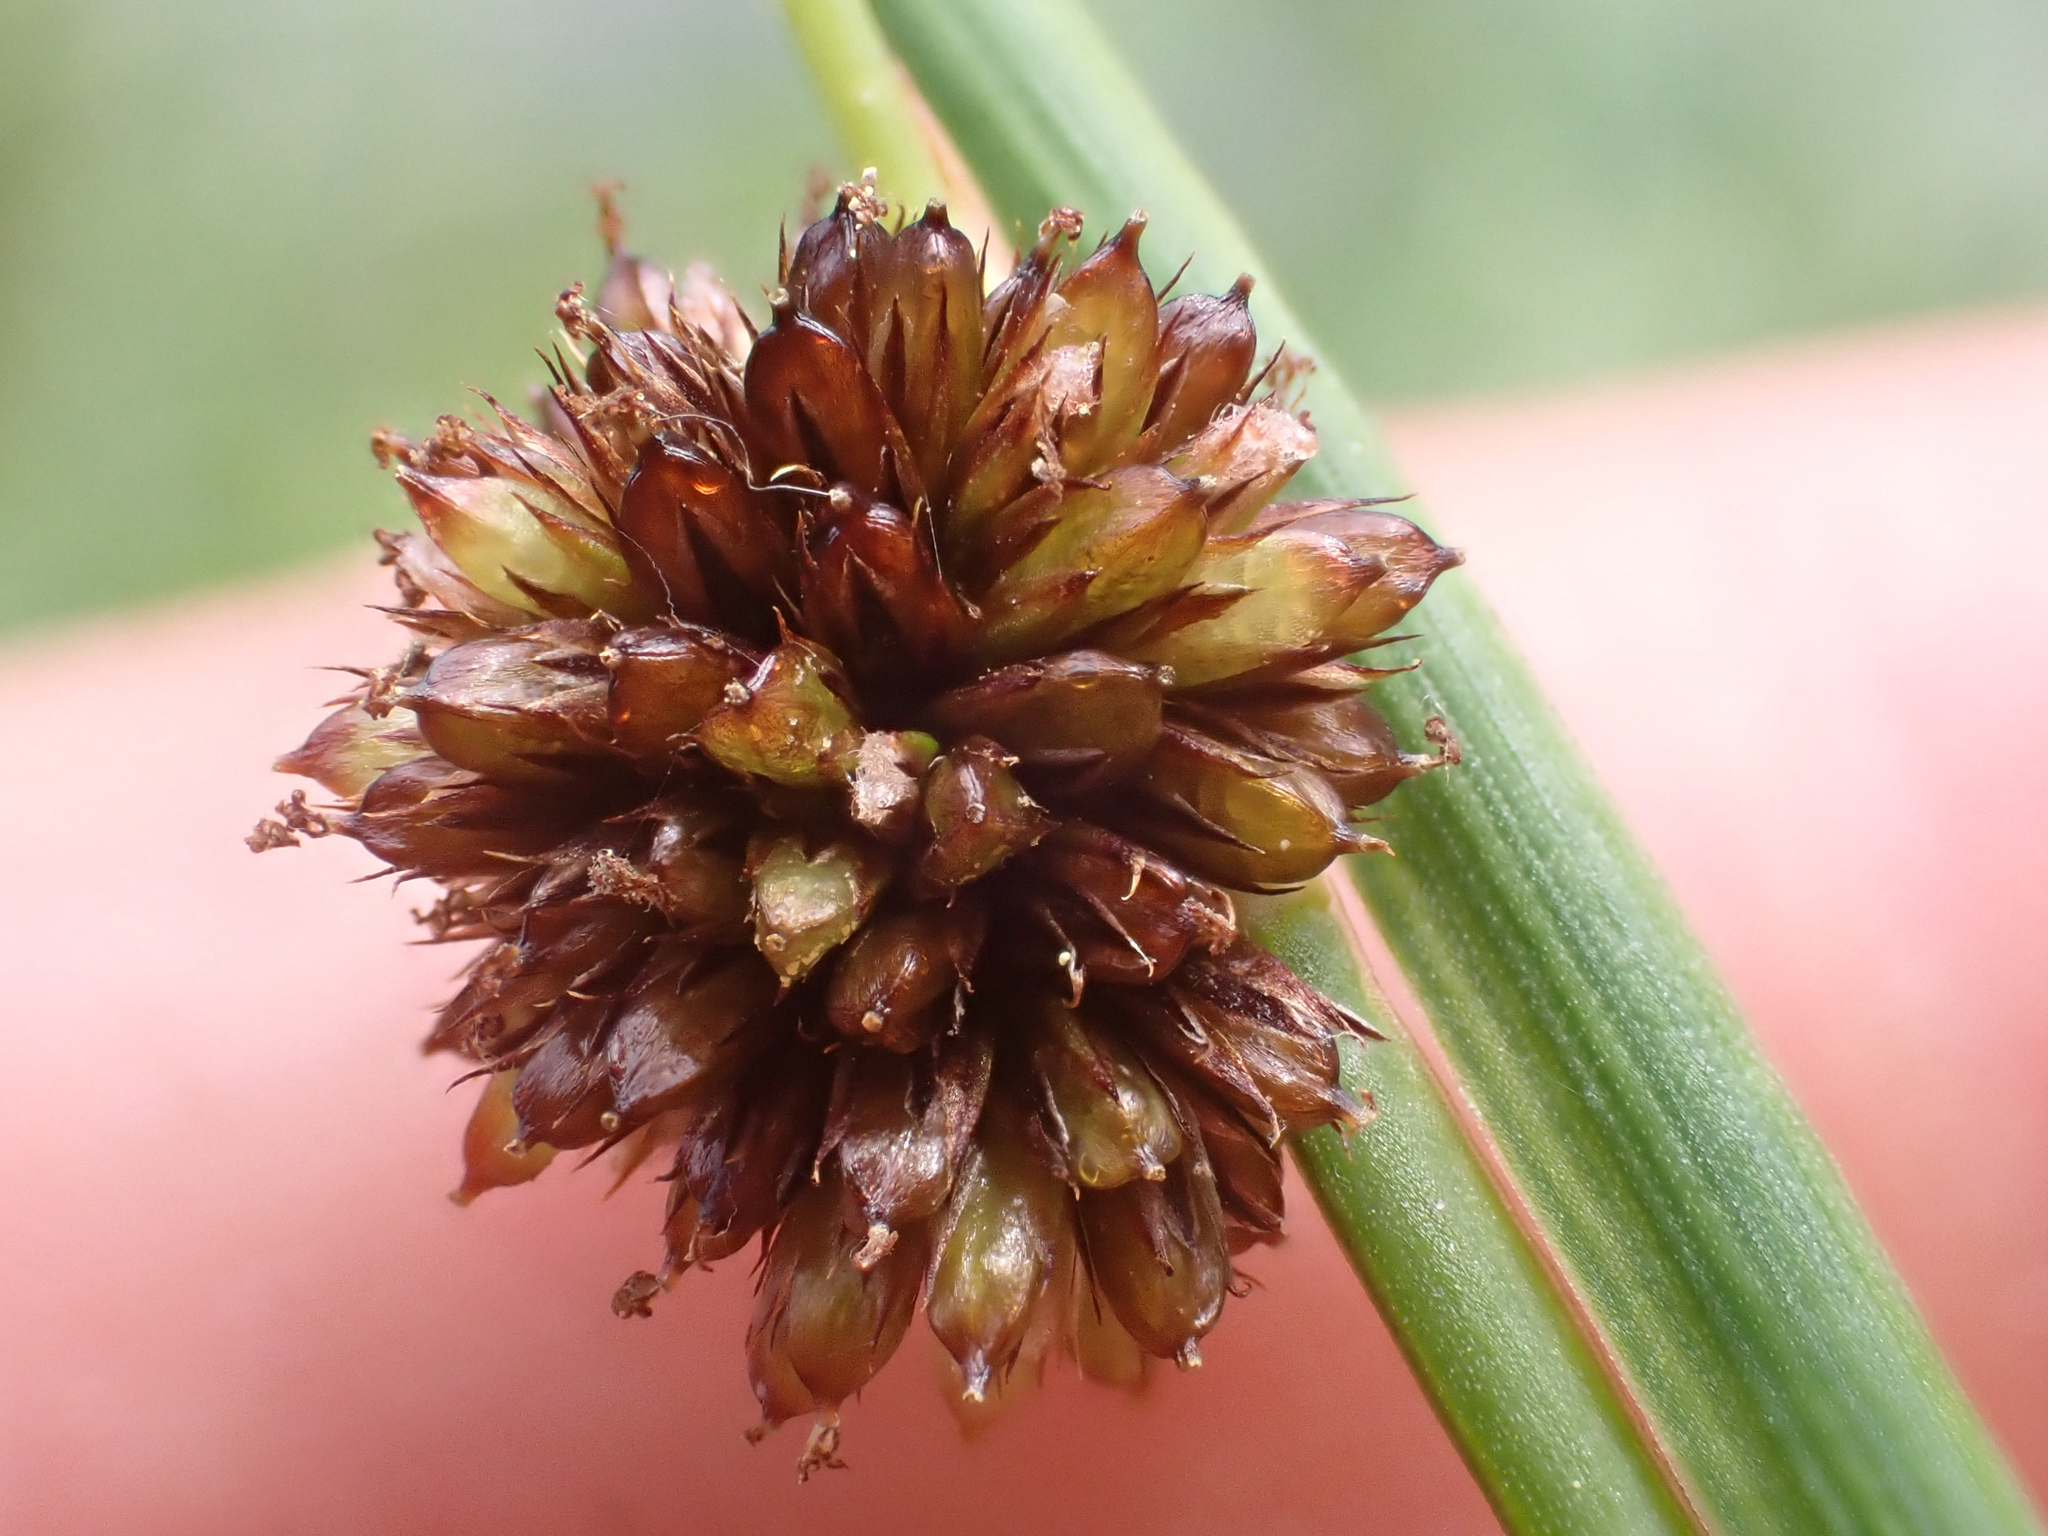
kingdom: Plantae
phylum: Tracheophyta
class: Liliopsida
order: Poales
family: Juncaceae
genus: Juncus
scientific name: Juncus ensifolius
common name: Sword-leaved rush
